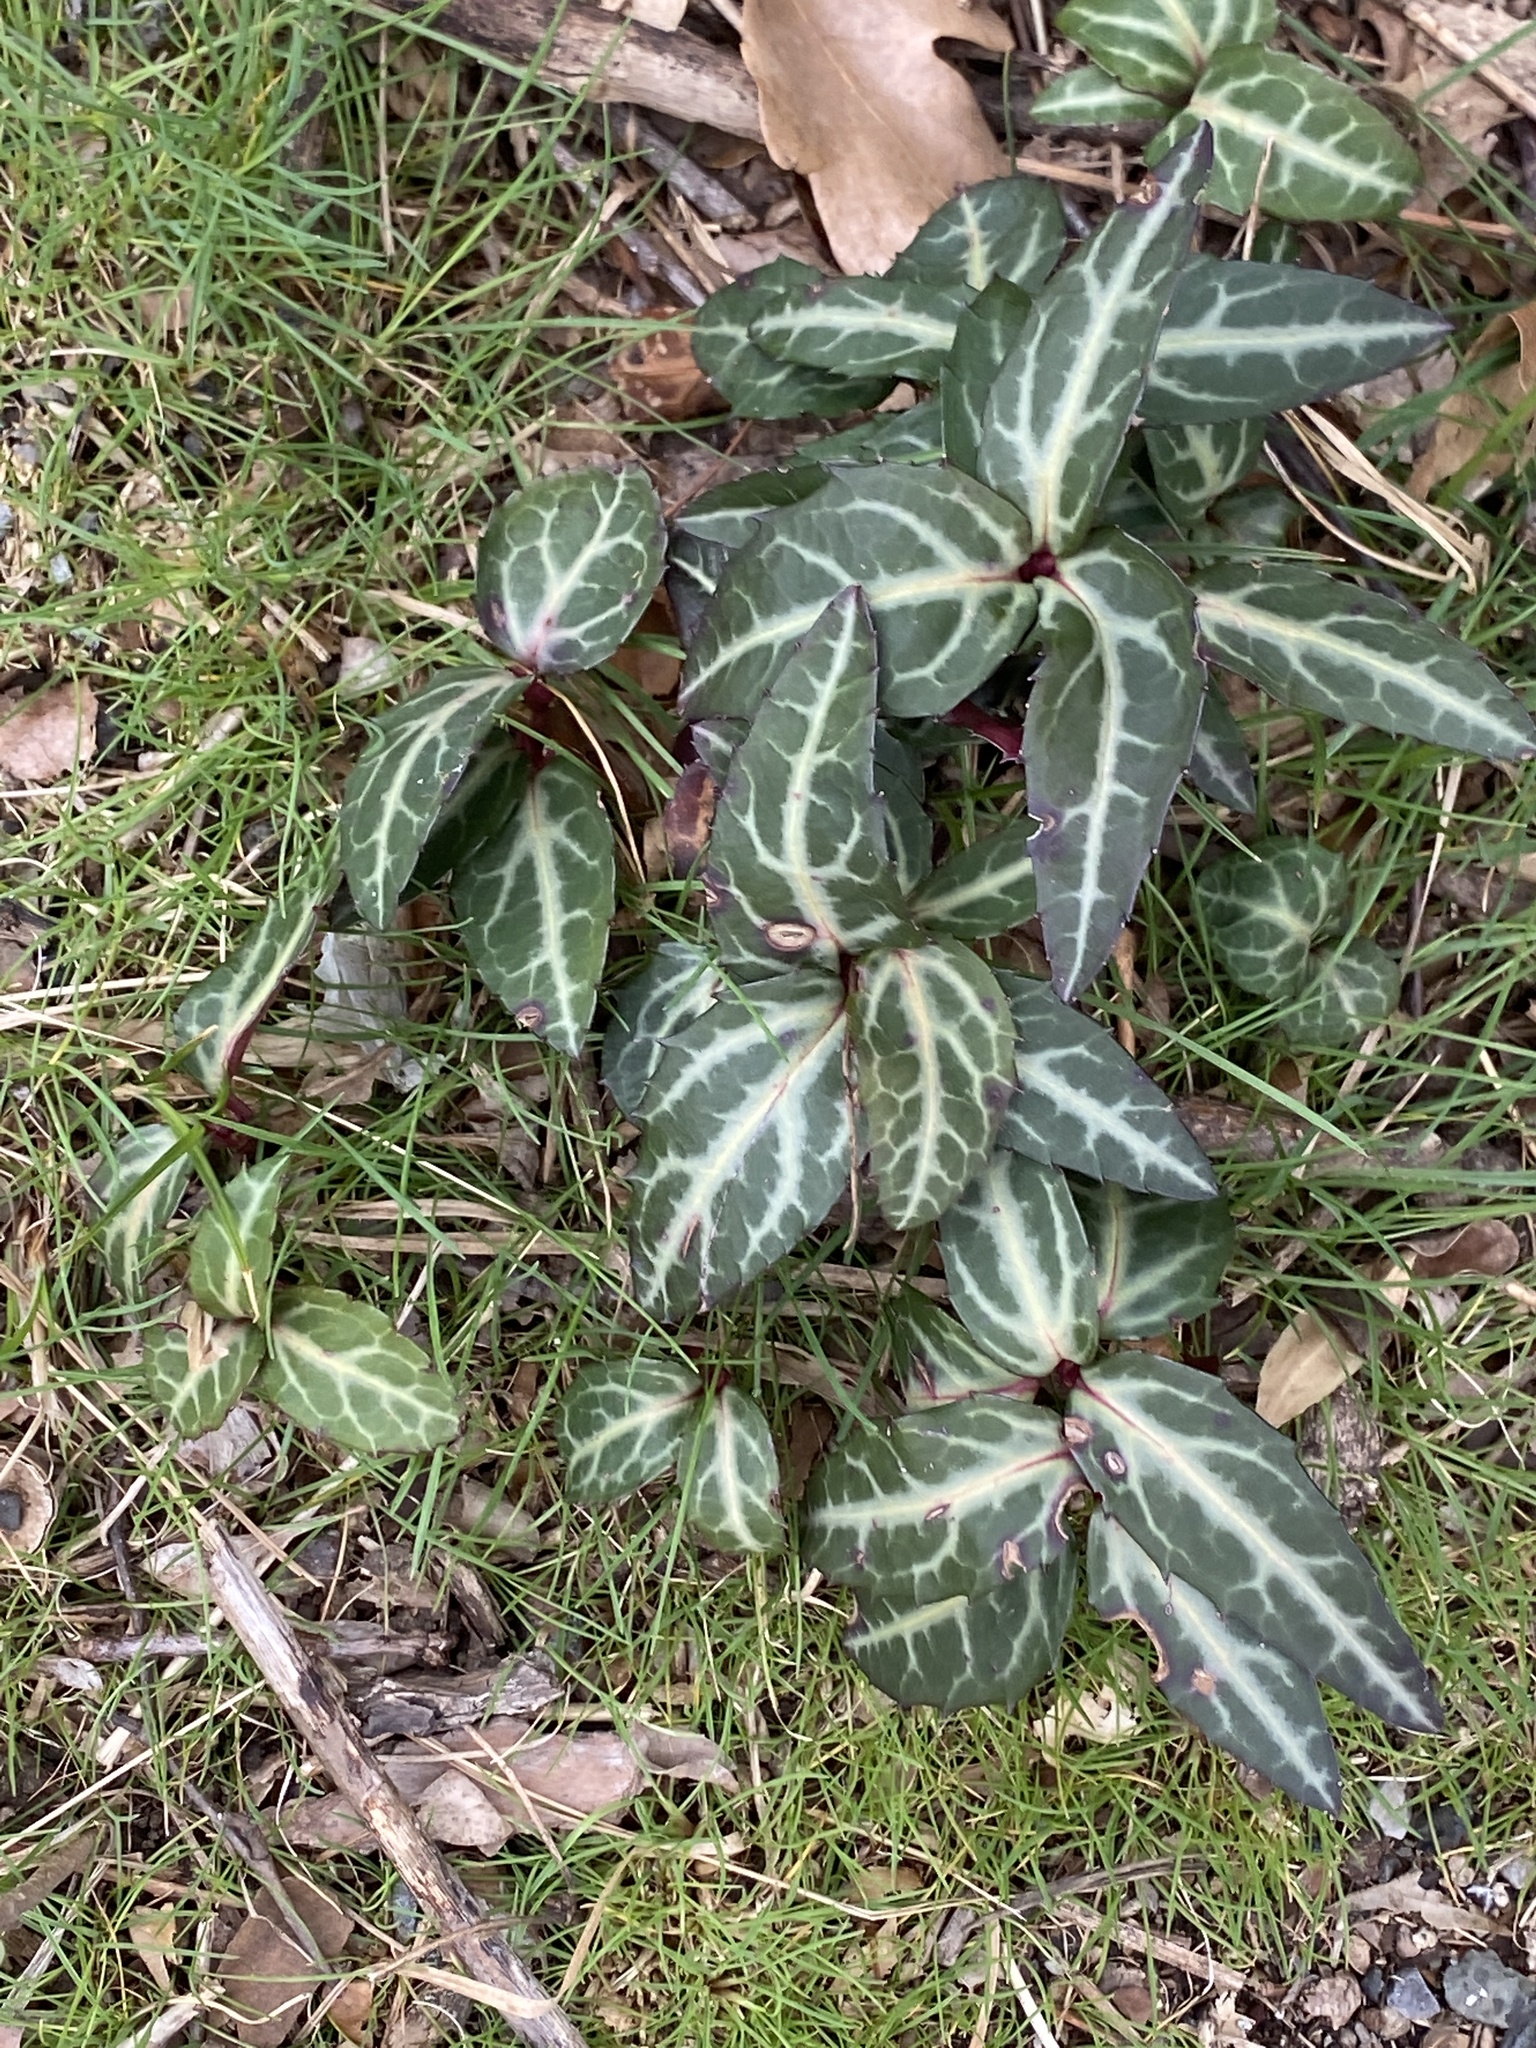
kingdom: Plantae
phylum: Tracheophyta
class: Magnoliopsida
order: Ericales
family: Ericaceae
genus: Chimaphila
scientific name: Chimaphila maculata
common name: Spotted pipsissewa
